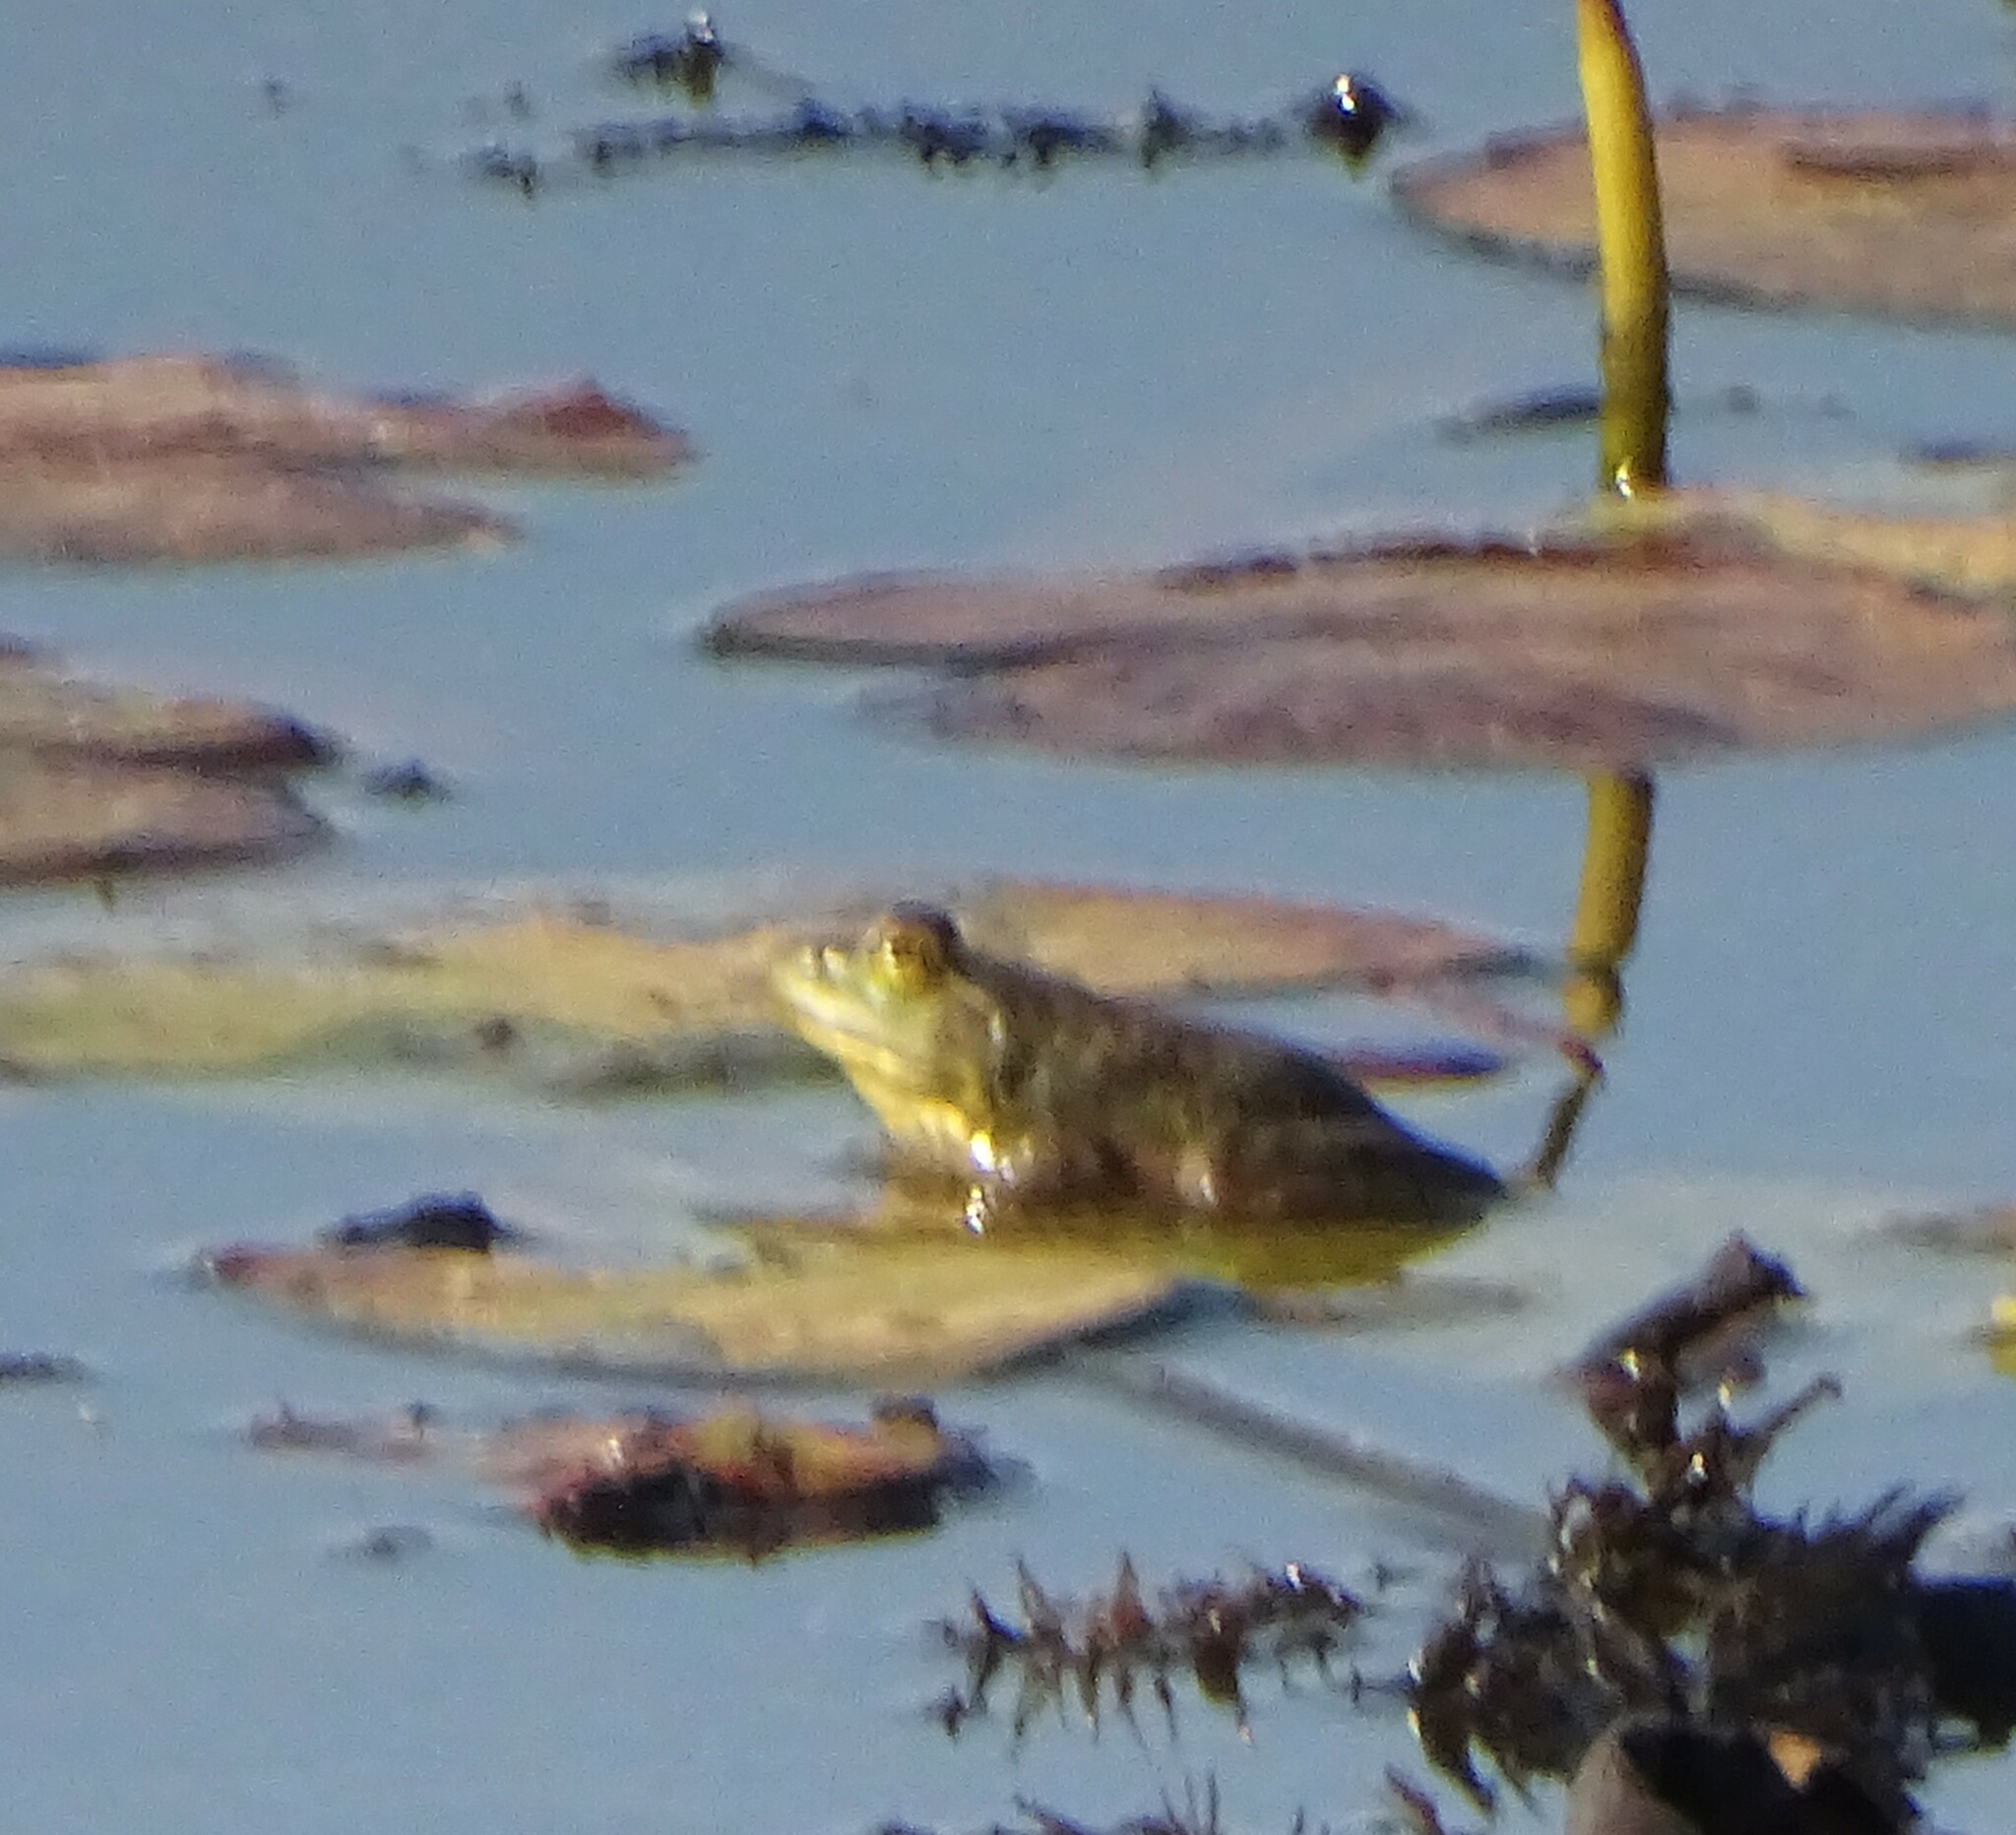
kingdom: Animalia
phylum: Chordata
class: Amphibia
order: Anura
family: Ranidae
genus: Lithobates
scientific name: Lithobates catesbeianus
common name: American bullfrog
